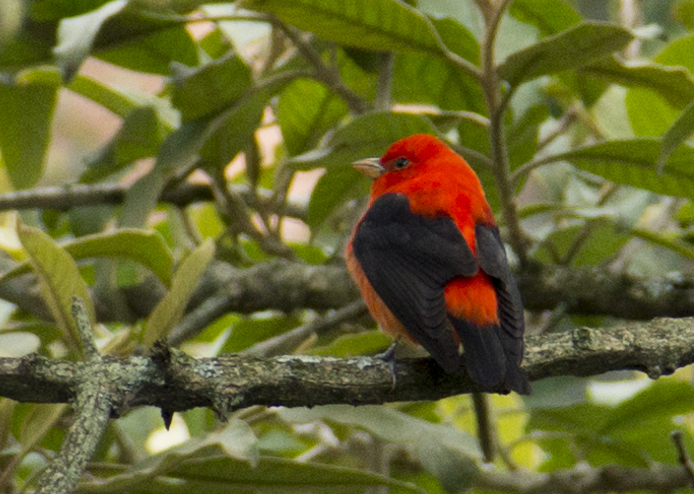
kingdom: Animalia
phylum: Chordata
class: Aves
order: Passeriformes
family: Cardinalidae
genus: Piranga
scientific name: Piranga olivacea
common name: Scarlet tanager
